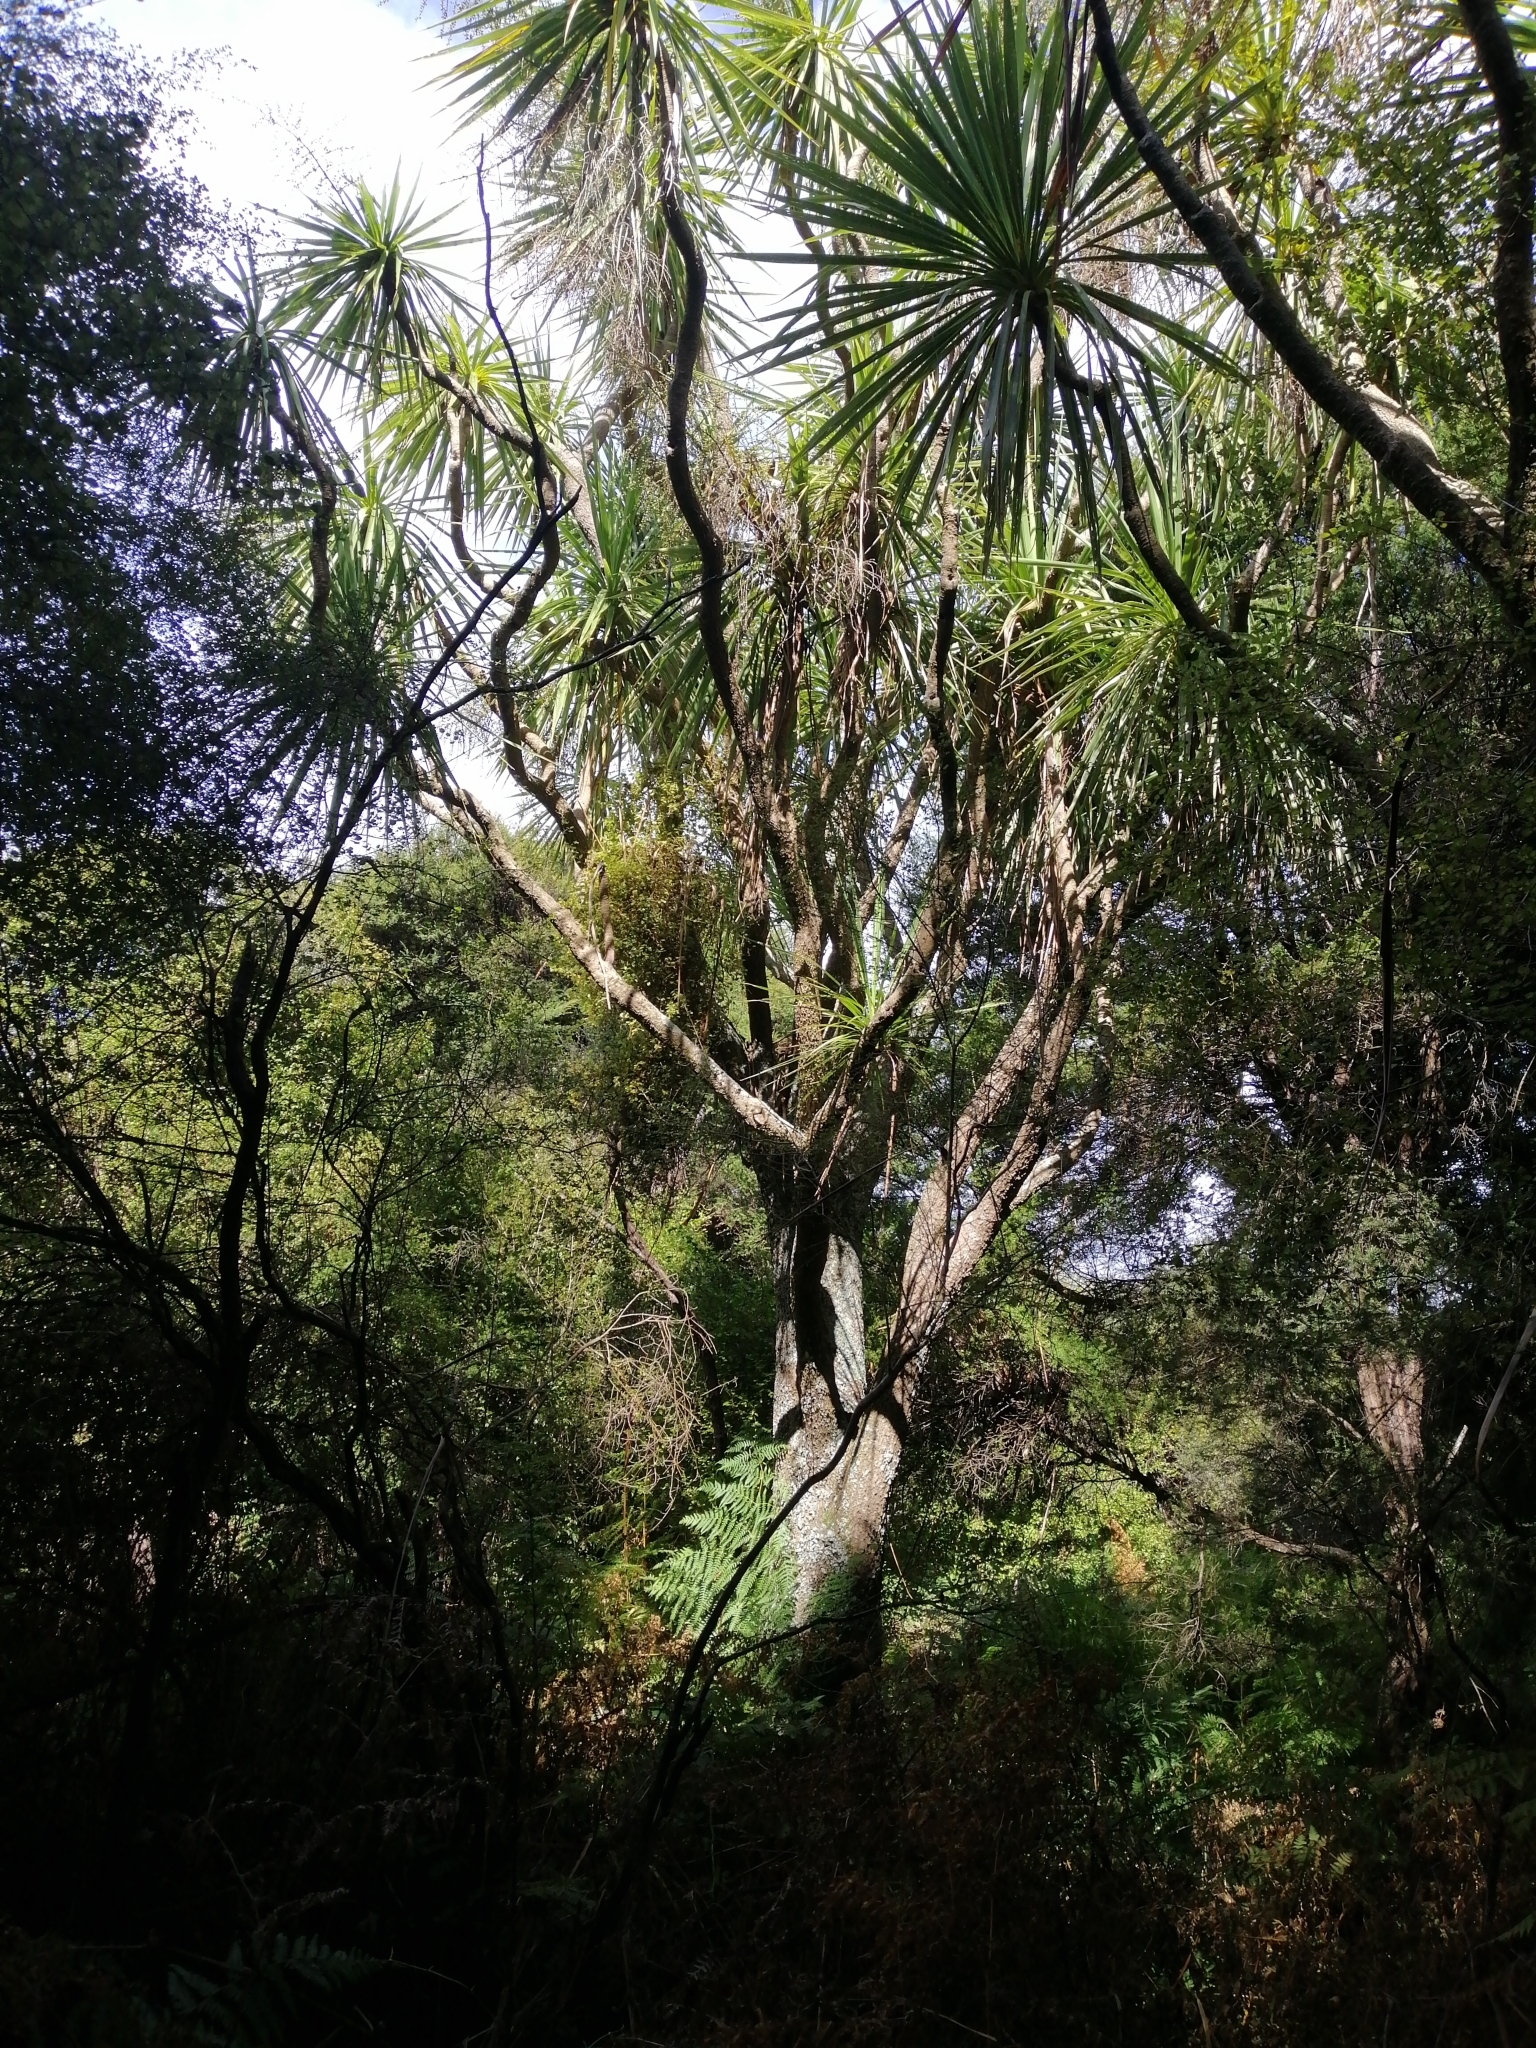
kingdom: Plantae
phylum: Tracheophyta
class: Liliopsida
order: Asparagales
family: Asparagaceae
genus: Cordyline
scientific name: Cordyline australis
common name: Cabbage-palm
